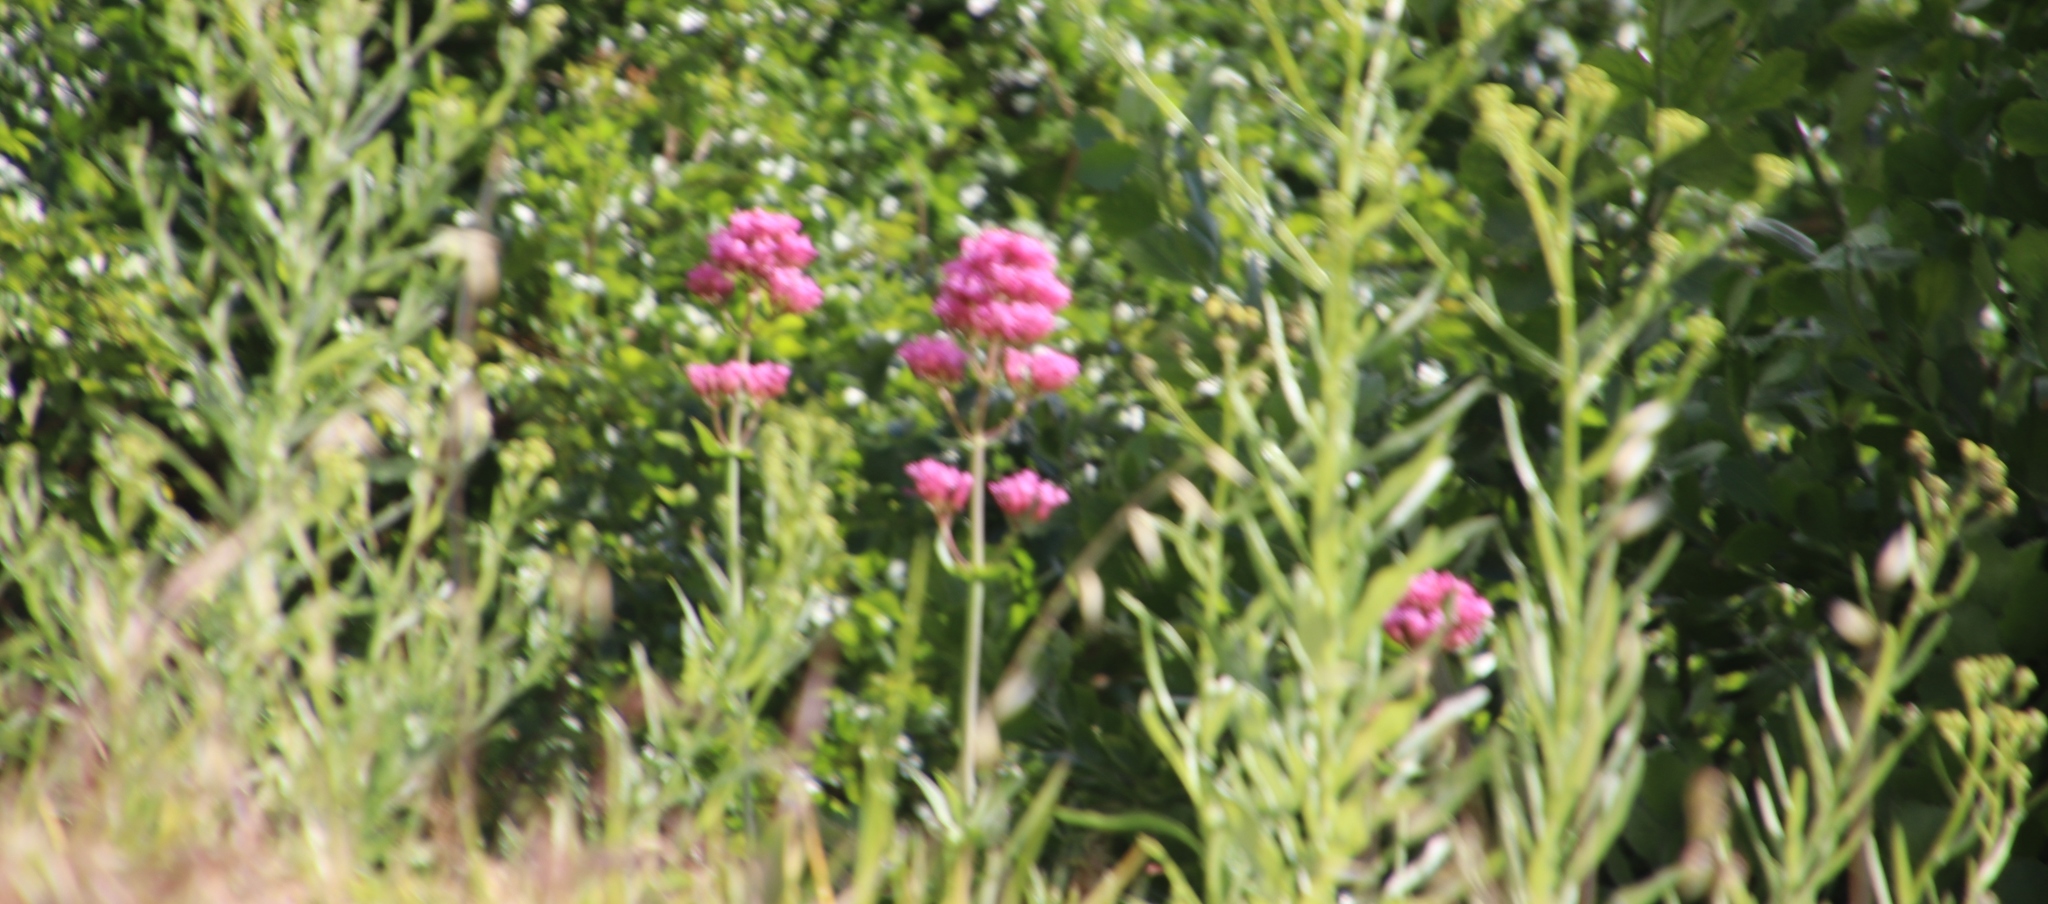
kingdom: Plantae
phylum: Tracheophyta
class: Magnoliopsida
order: Dipsacales
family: Caprifoliaceae
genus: Centranthus
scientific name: Centranthus ruber
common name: Red valerian
